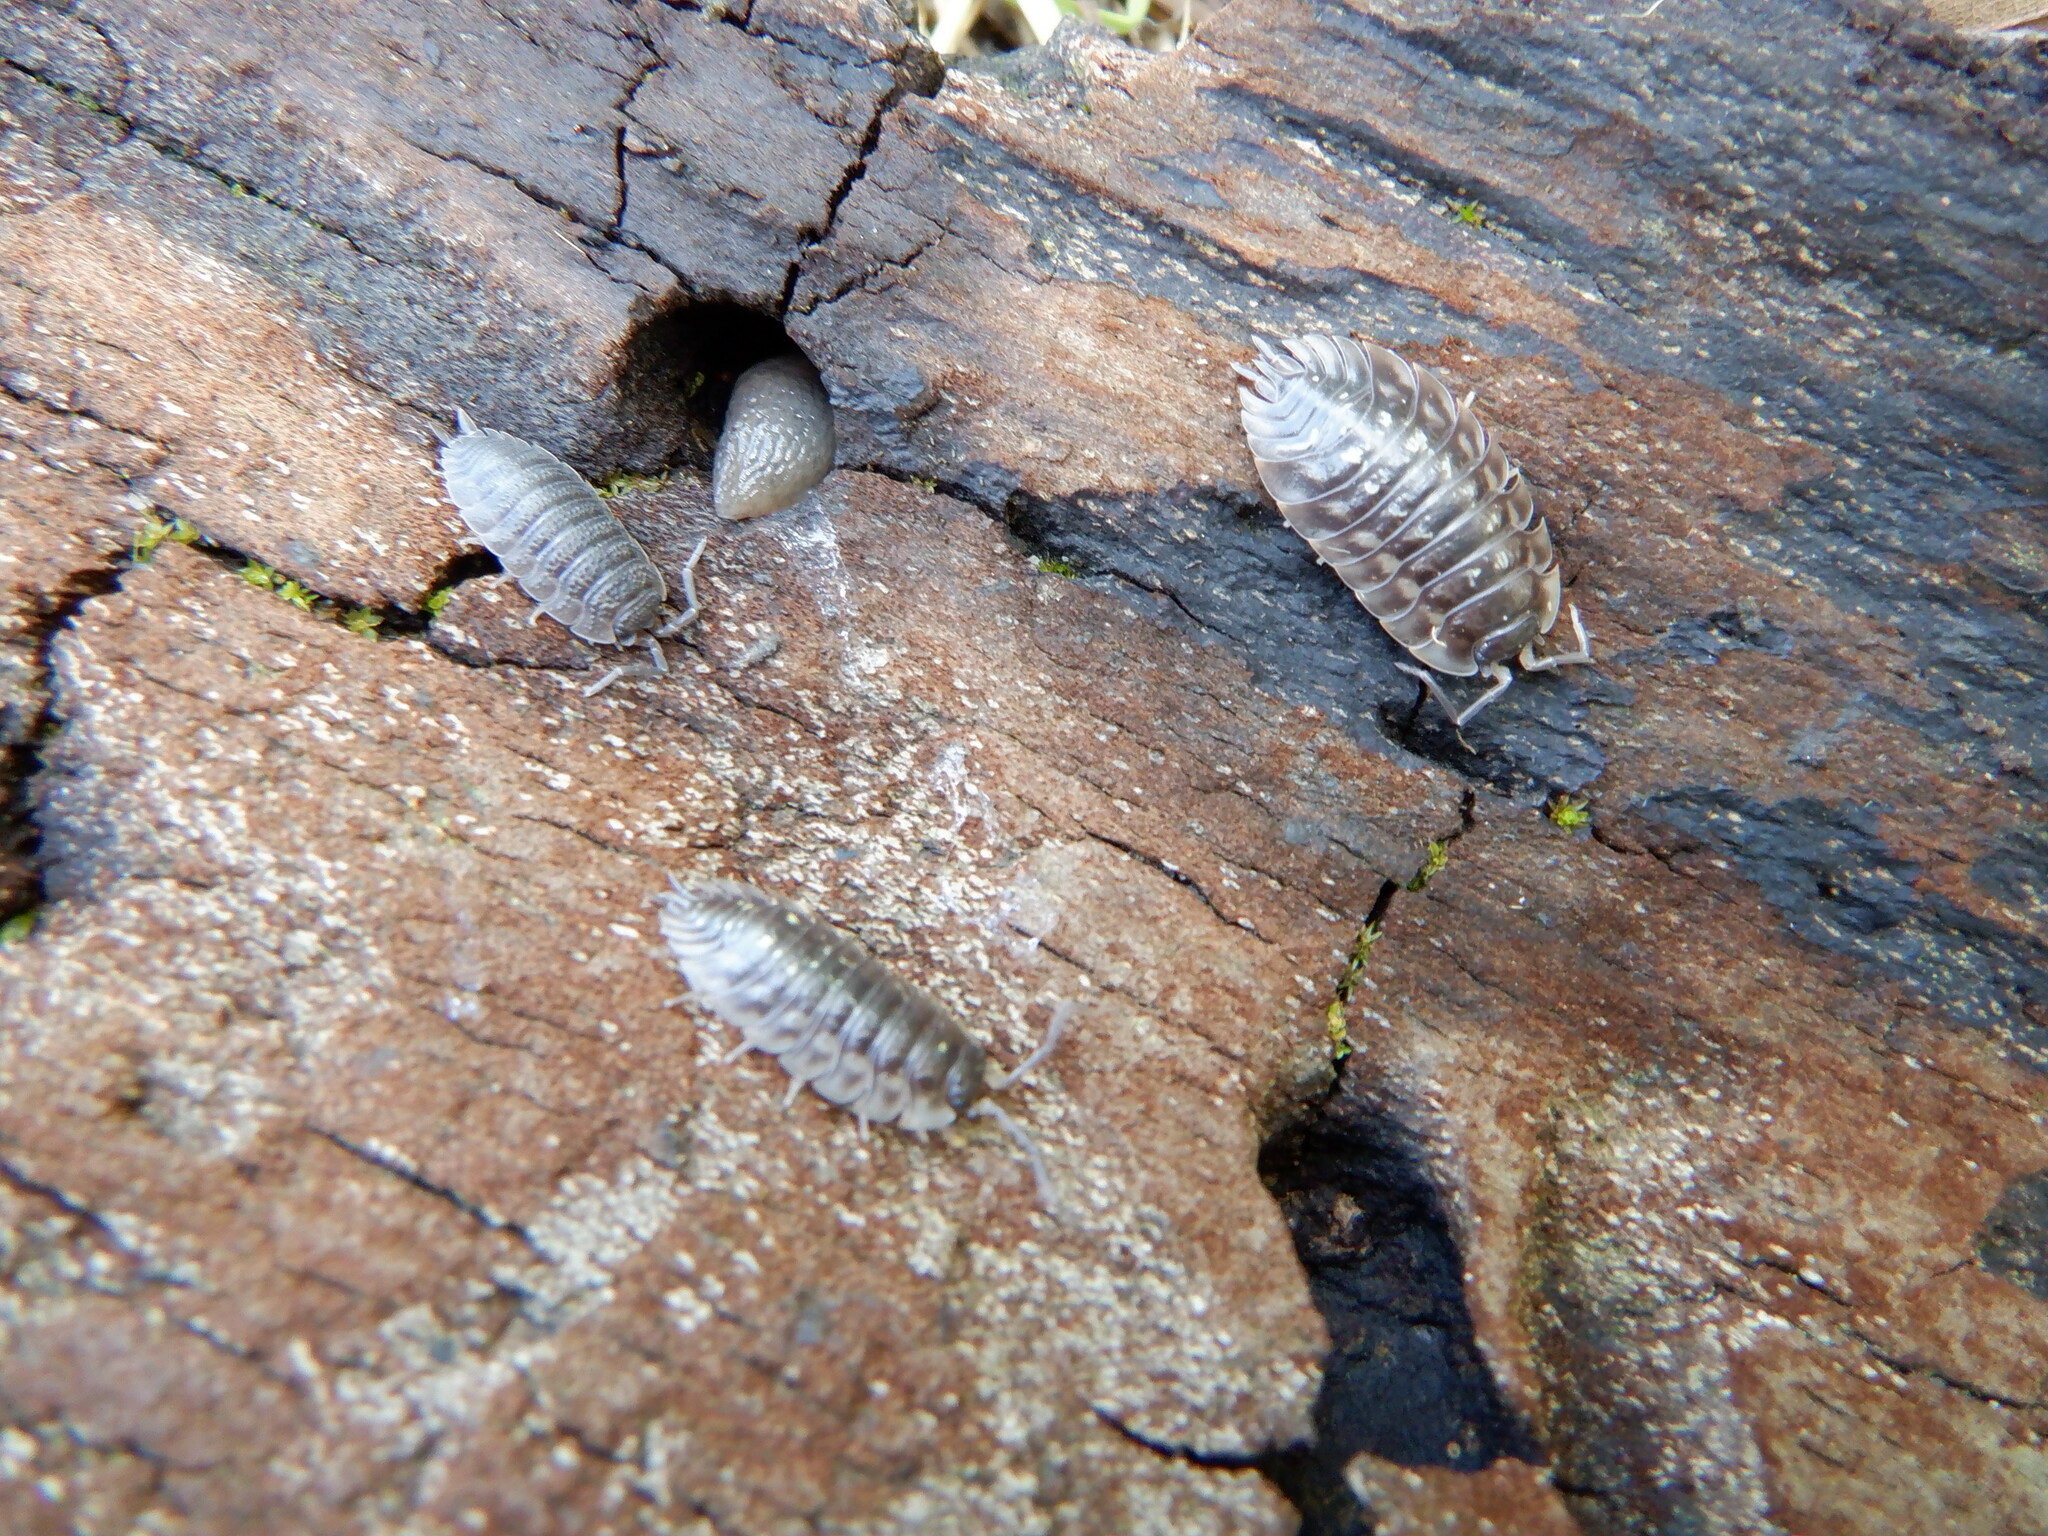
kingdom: Animalia
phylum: Arthropoda
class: Malacostraca
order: Isopoda
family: Oniscidae
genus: Oniscus
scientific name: Oniscus asellus
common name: Common shiny woodlouse
